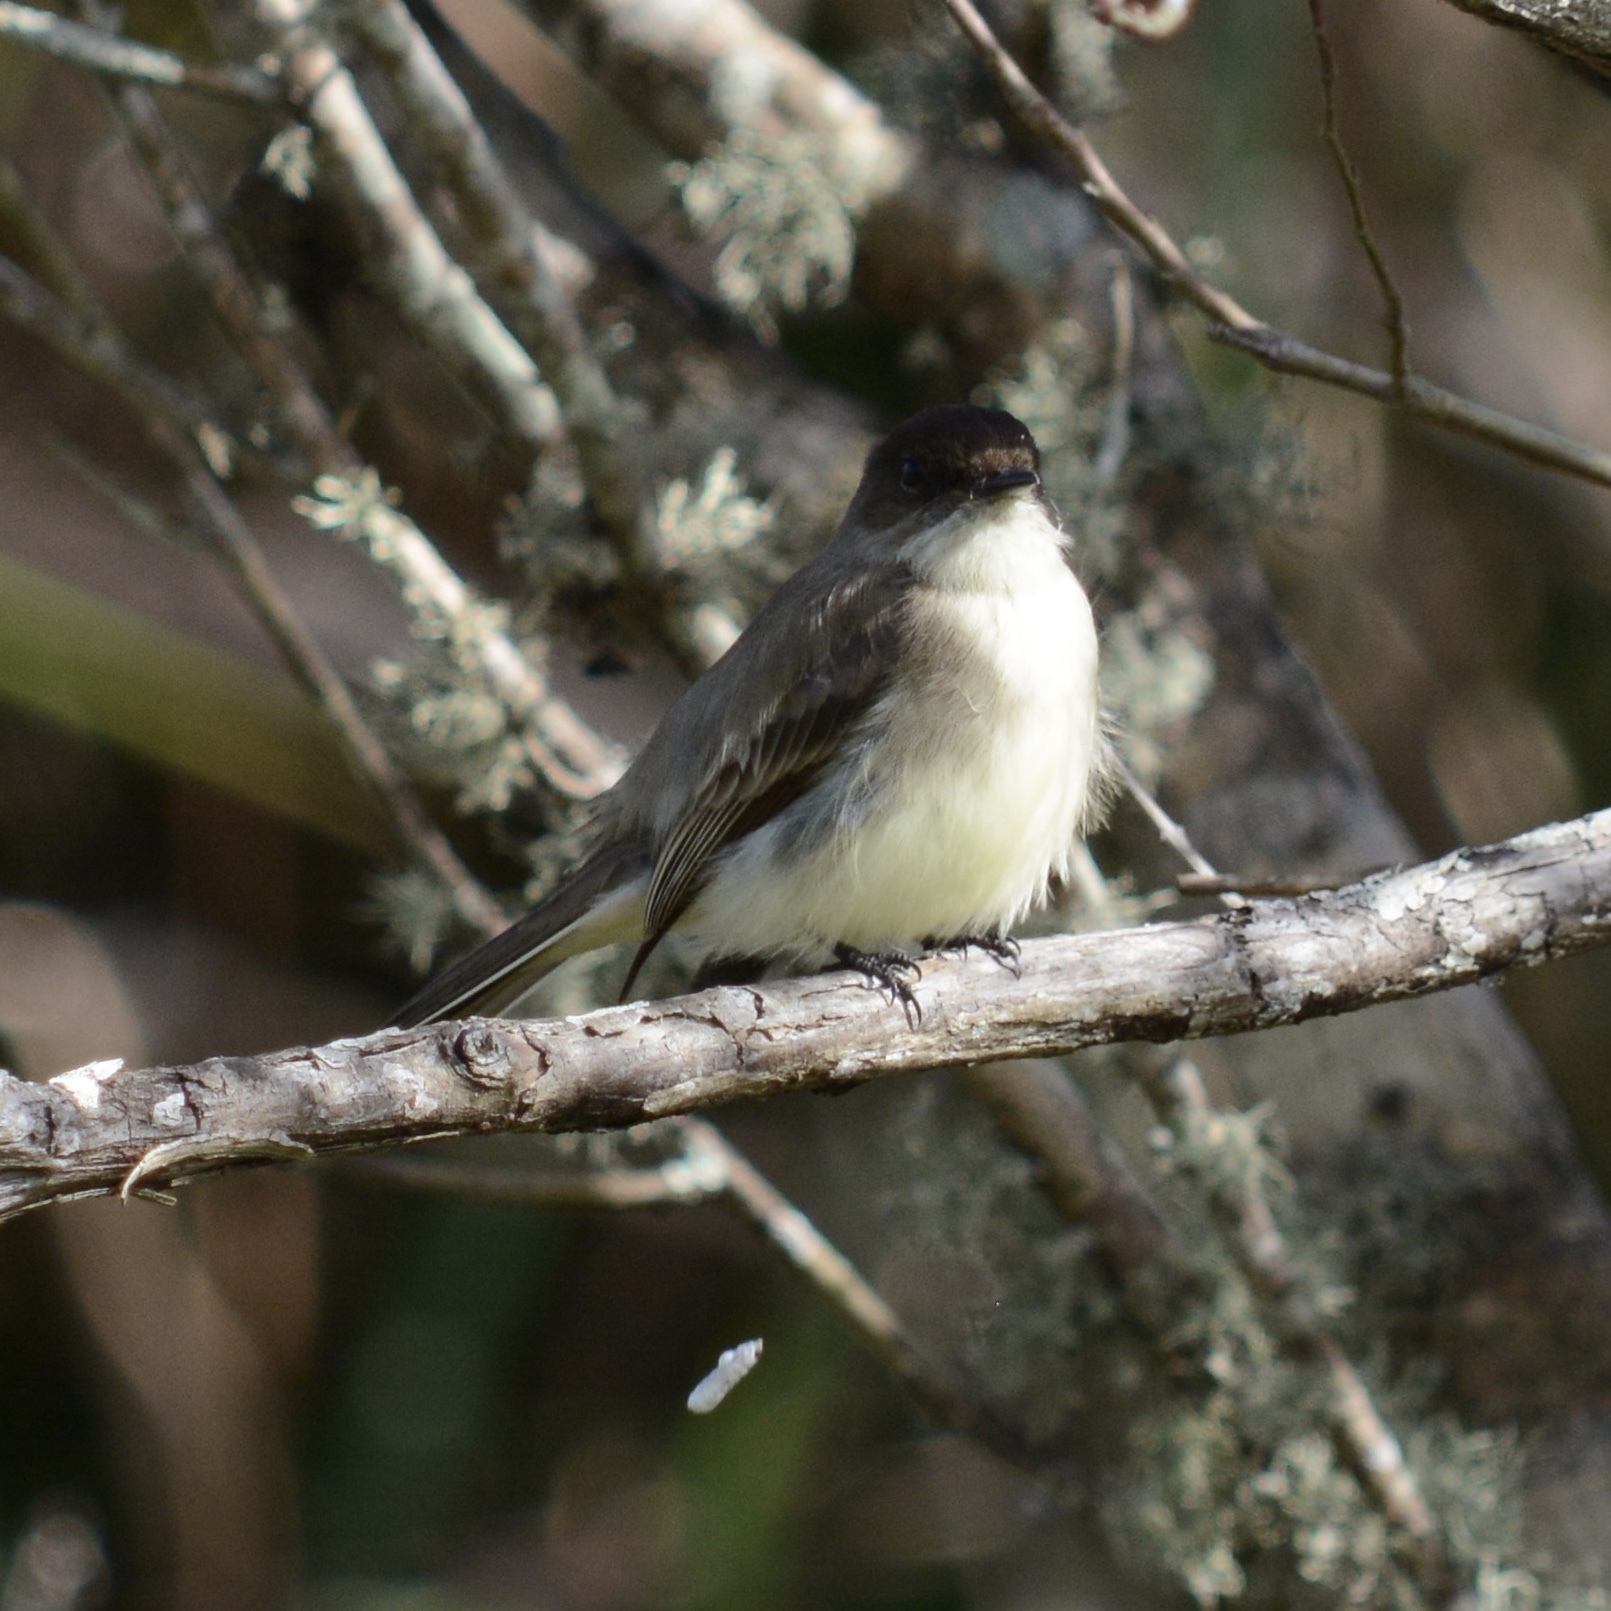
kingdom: Animalia
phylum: Chordata
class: Aves
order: Passeriformes
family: Tyrannidae
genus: Sayornis
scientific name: Sayornis phoebe
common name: Eastern phoebe
